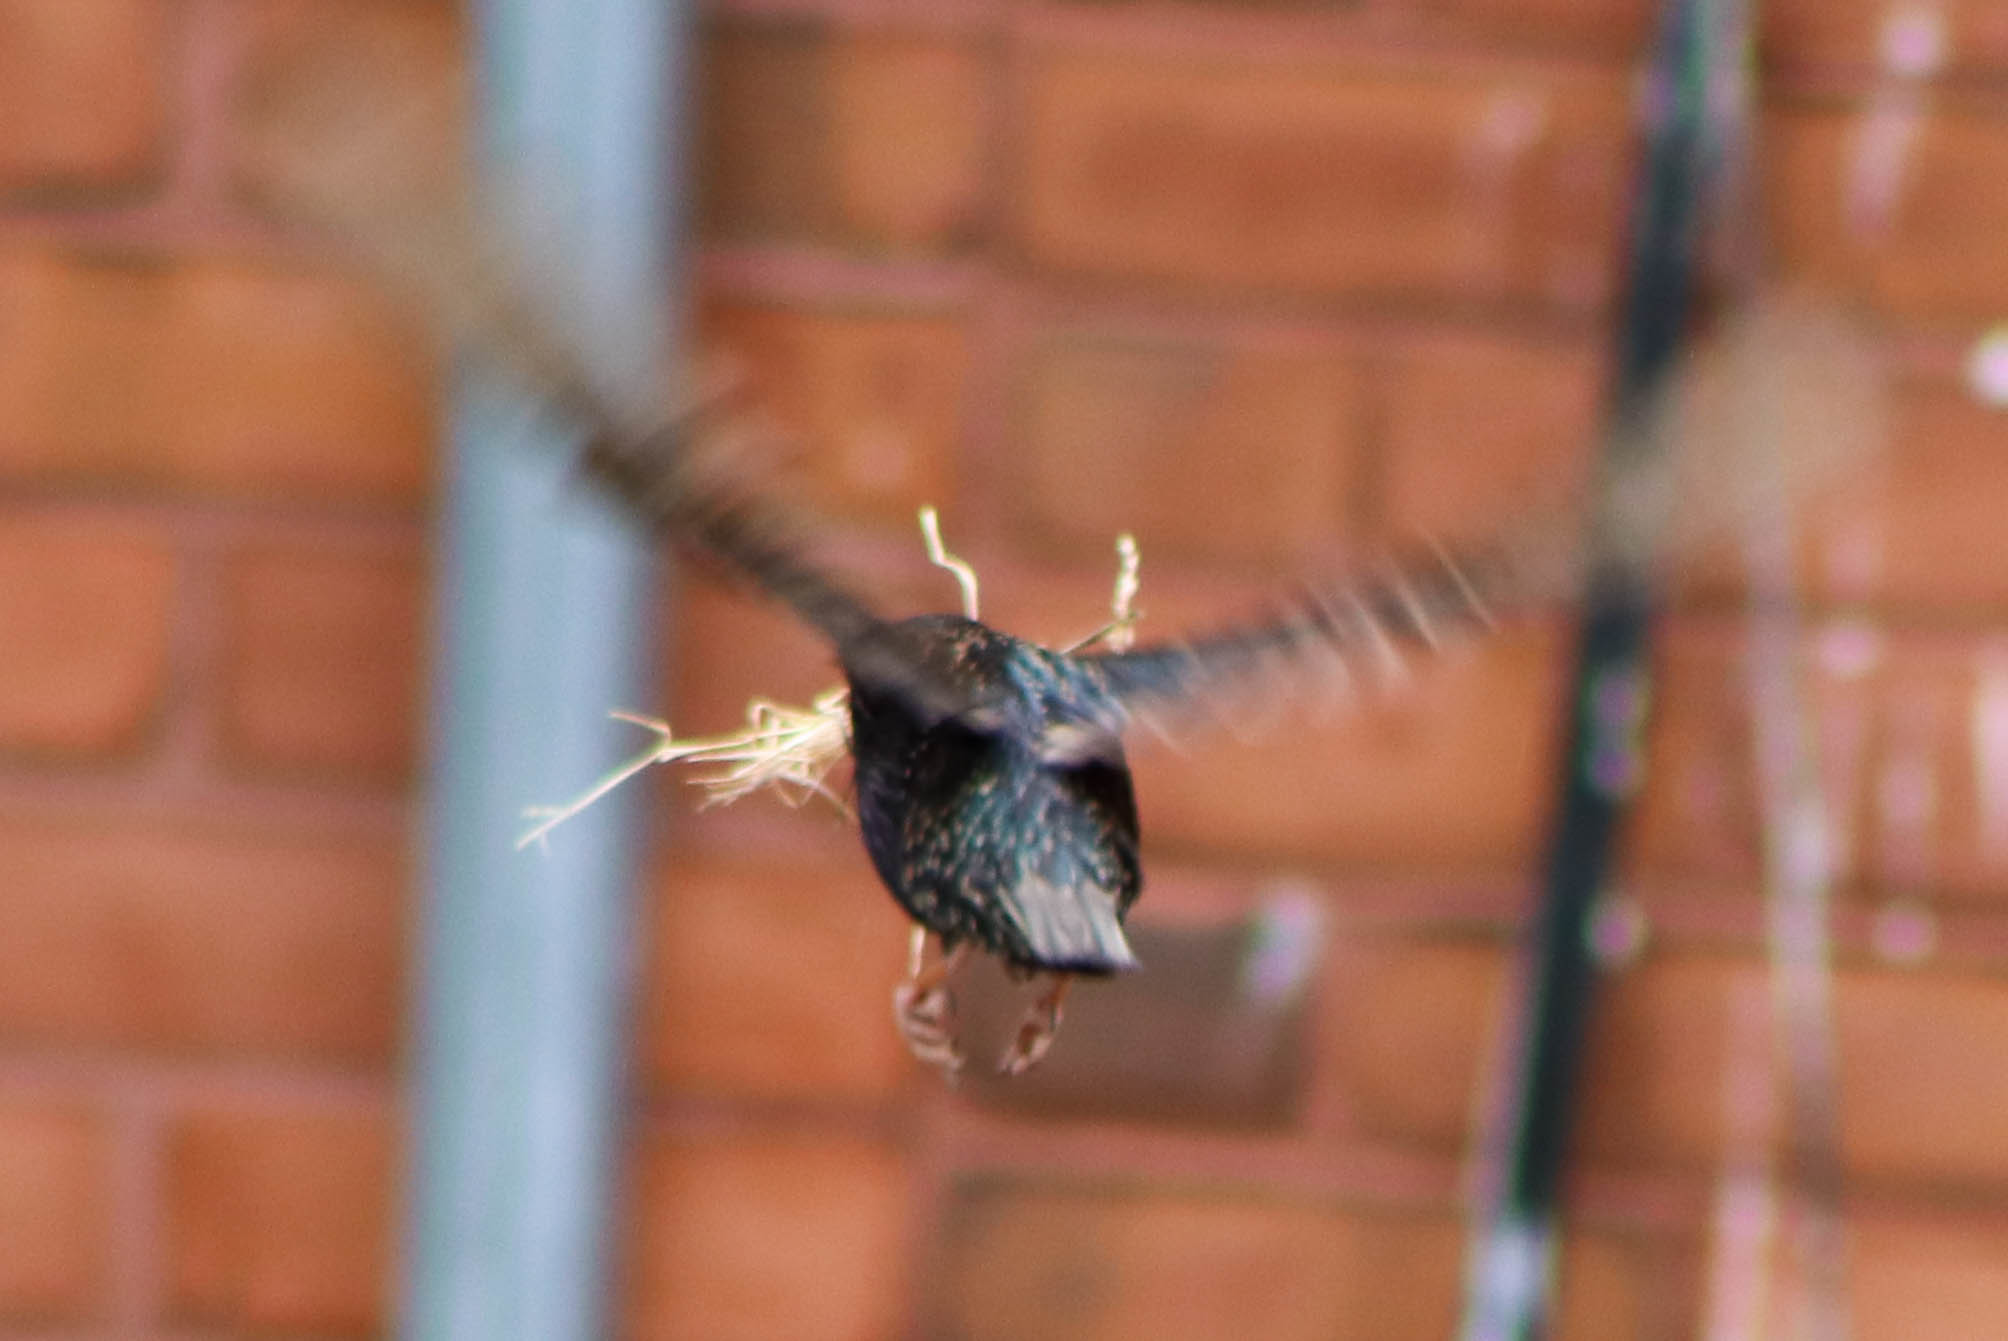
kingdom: Animalia
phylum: Chordata
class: Aves
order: Passeriformes
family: Sturnidae
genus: Sturnus
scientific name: Sturnus vulgaris
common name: Common starling
